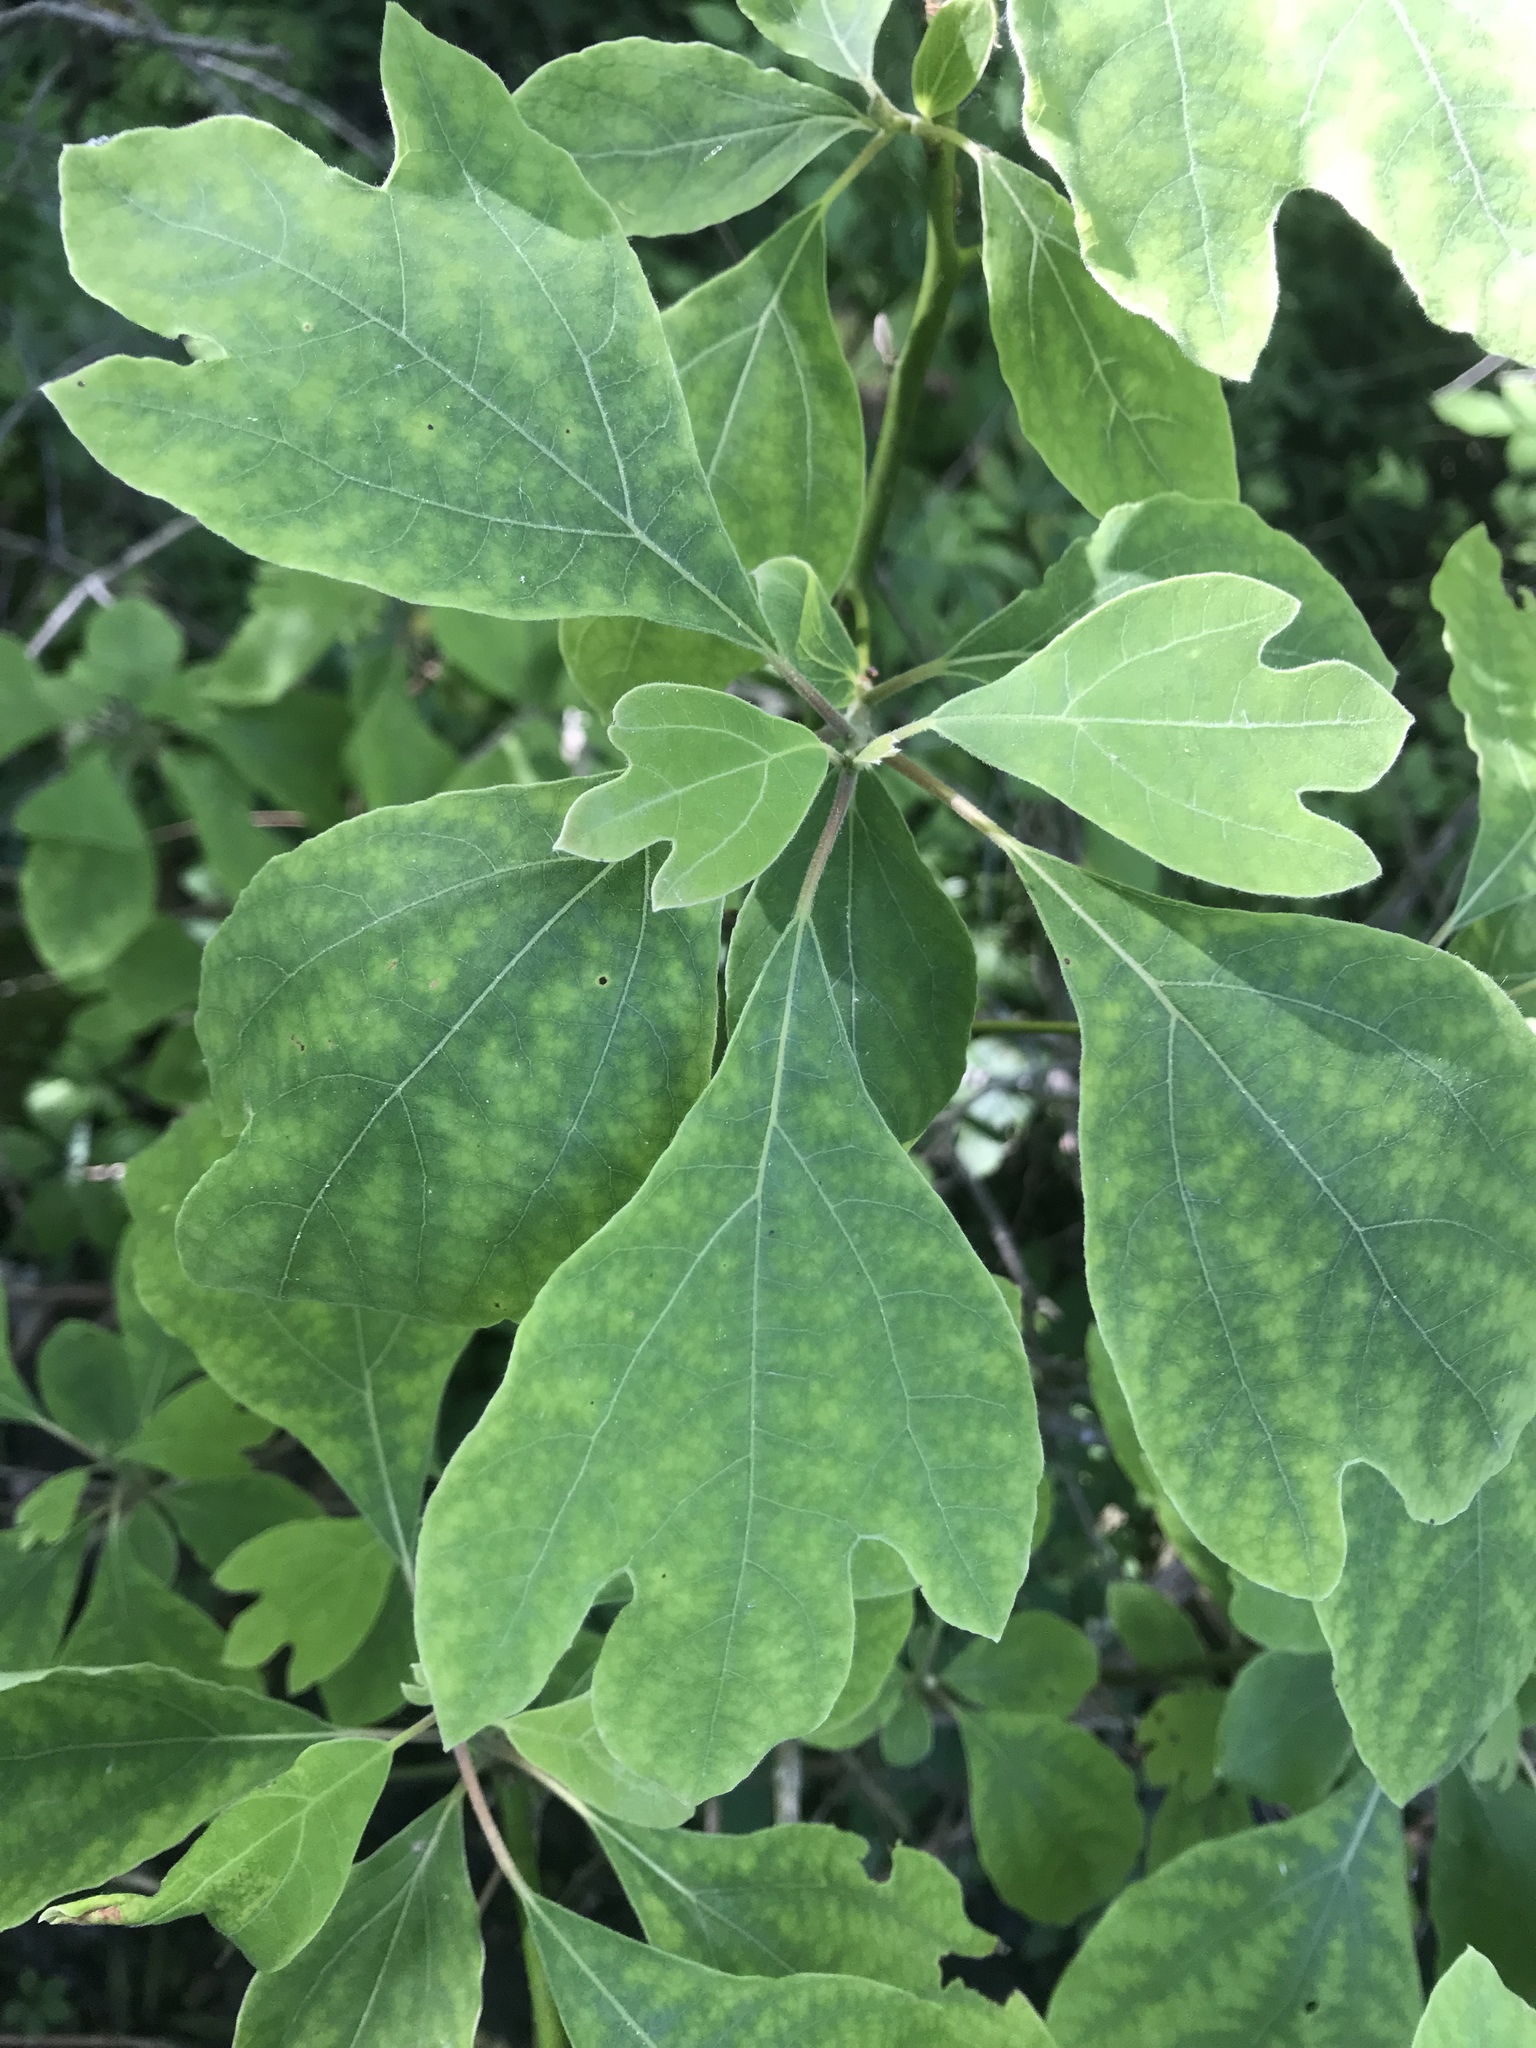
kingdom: Plantae
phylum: Tracheophyta
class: Magnoliopsida
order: Laurales
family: Lauraceae
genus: Sassafras
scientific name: Sassafras albidum
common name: Sassafras
